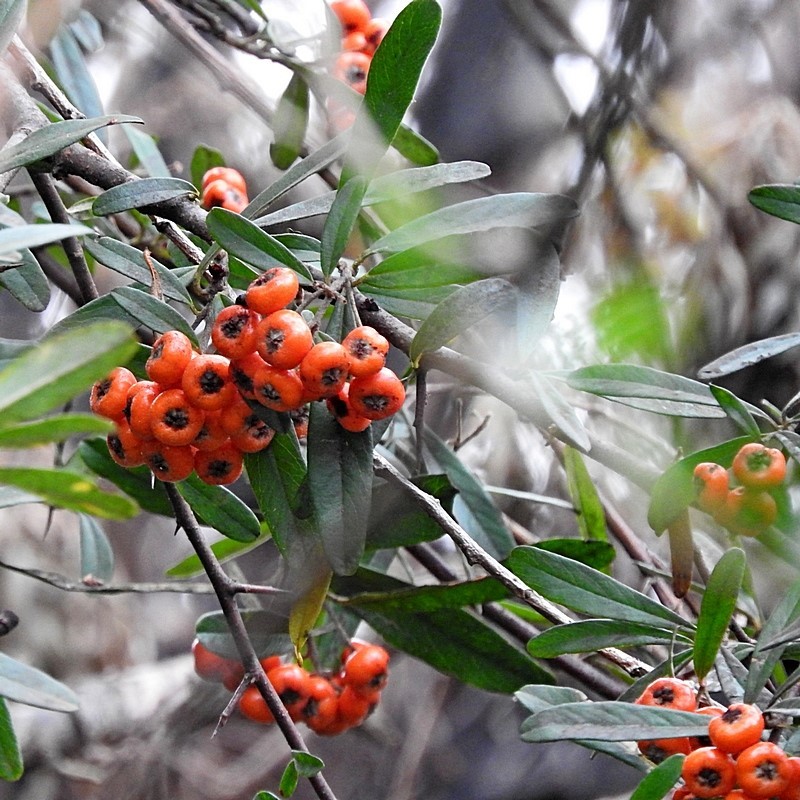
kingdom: Plantae
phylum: Tracheophyta
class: Magnoliopsida
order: Rosales
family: Rosaceae
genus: Pyracantha
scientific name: Pyracantha angustifolia
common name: Narrowleaf firethorn
